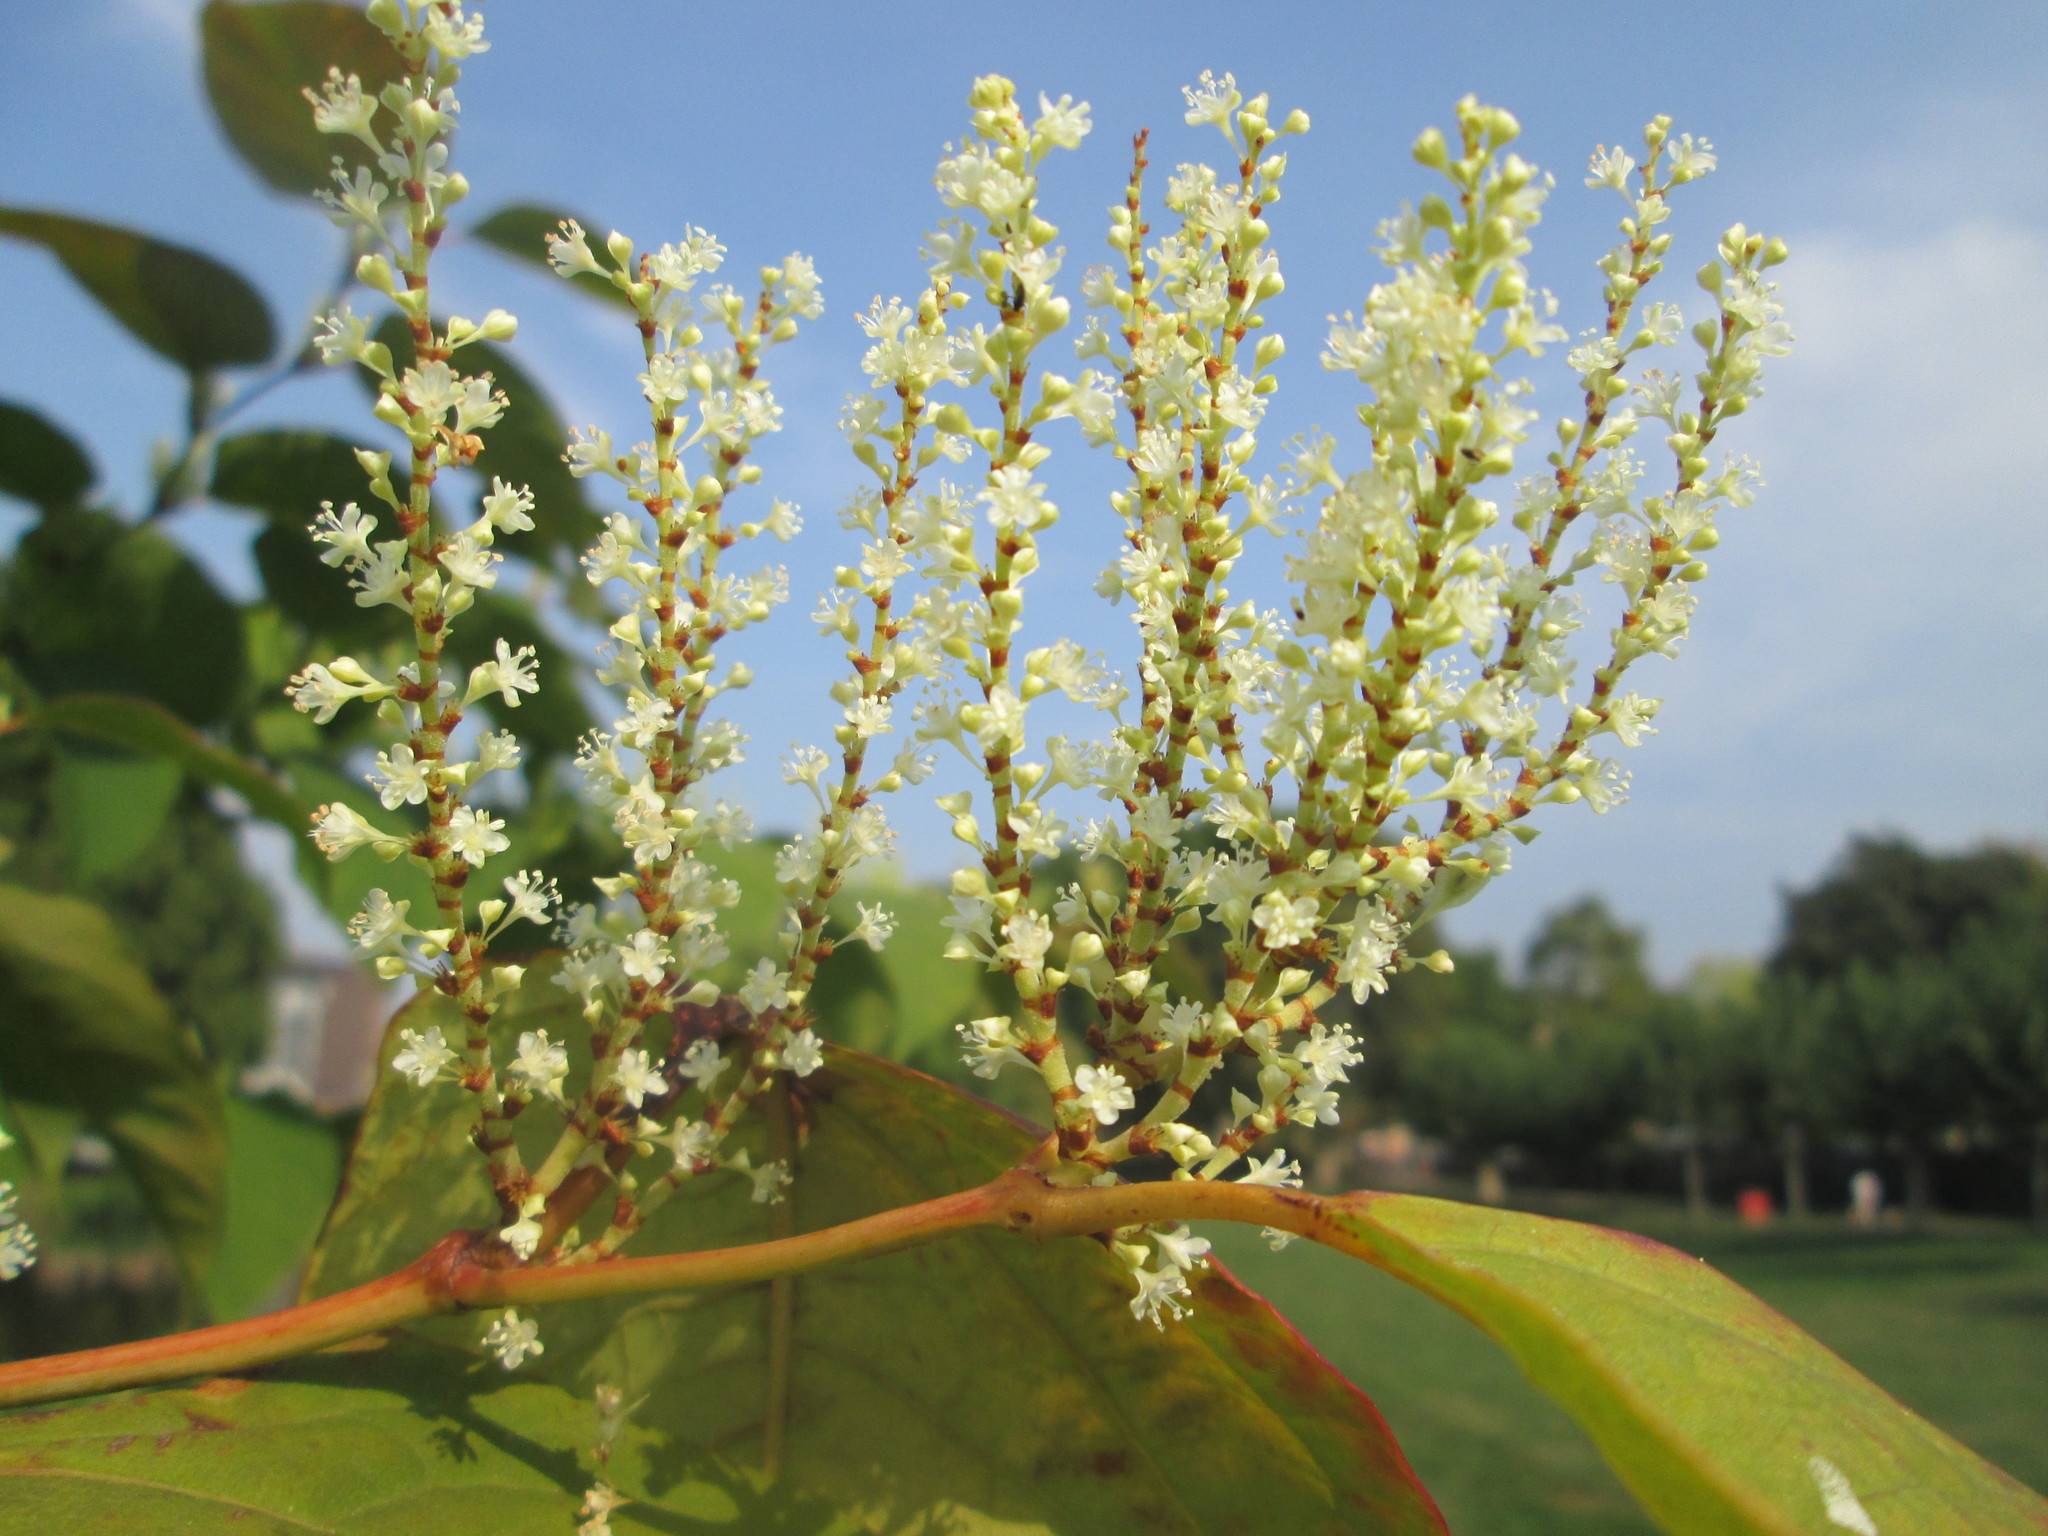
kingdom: Plantae
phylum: Tracheophyta
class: Magnoliopsida
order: Caryophyllales
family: Polygonaceae
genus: Reynoutria
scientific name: Reynoutria bohemica
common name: Bohemian knotweed
